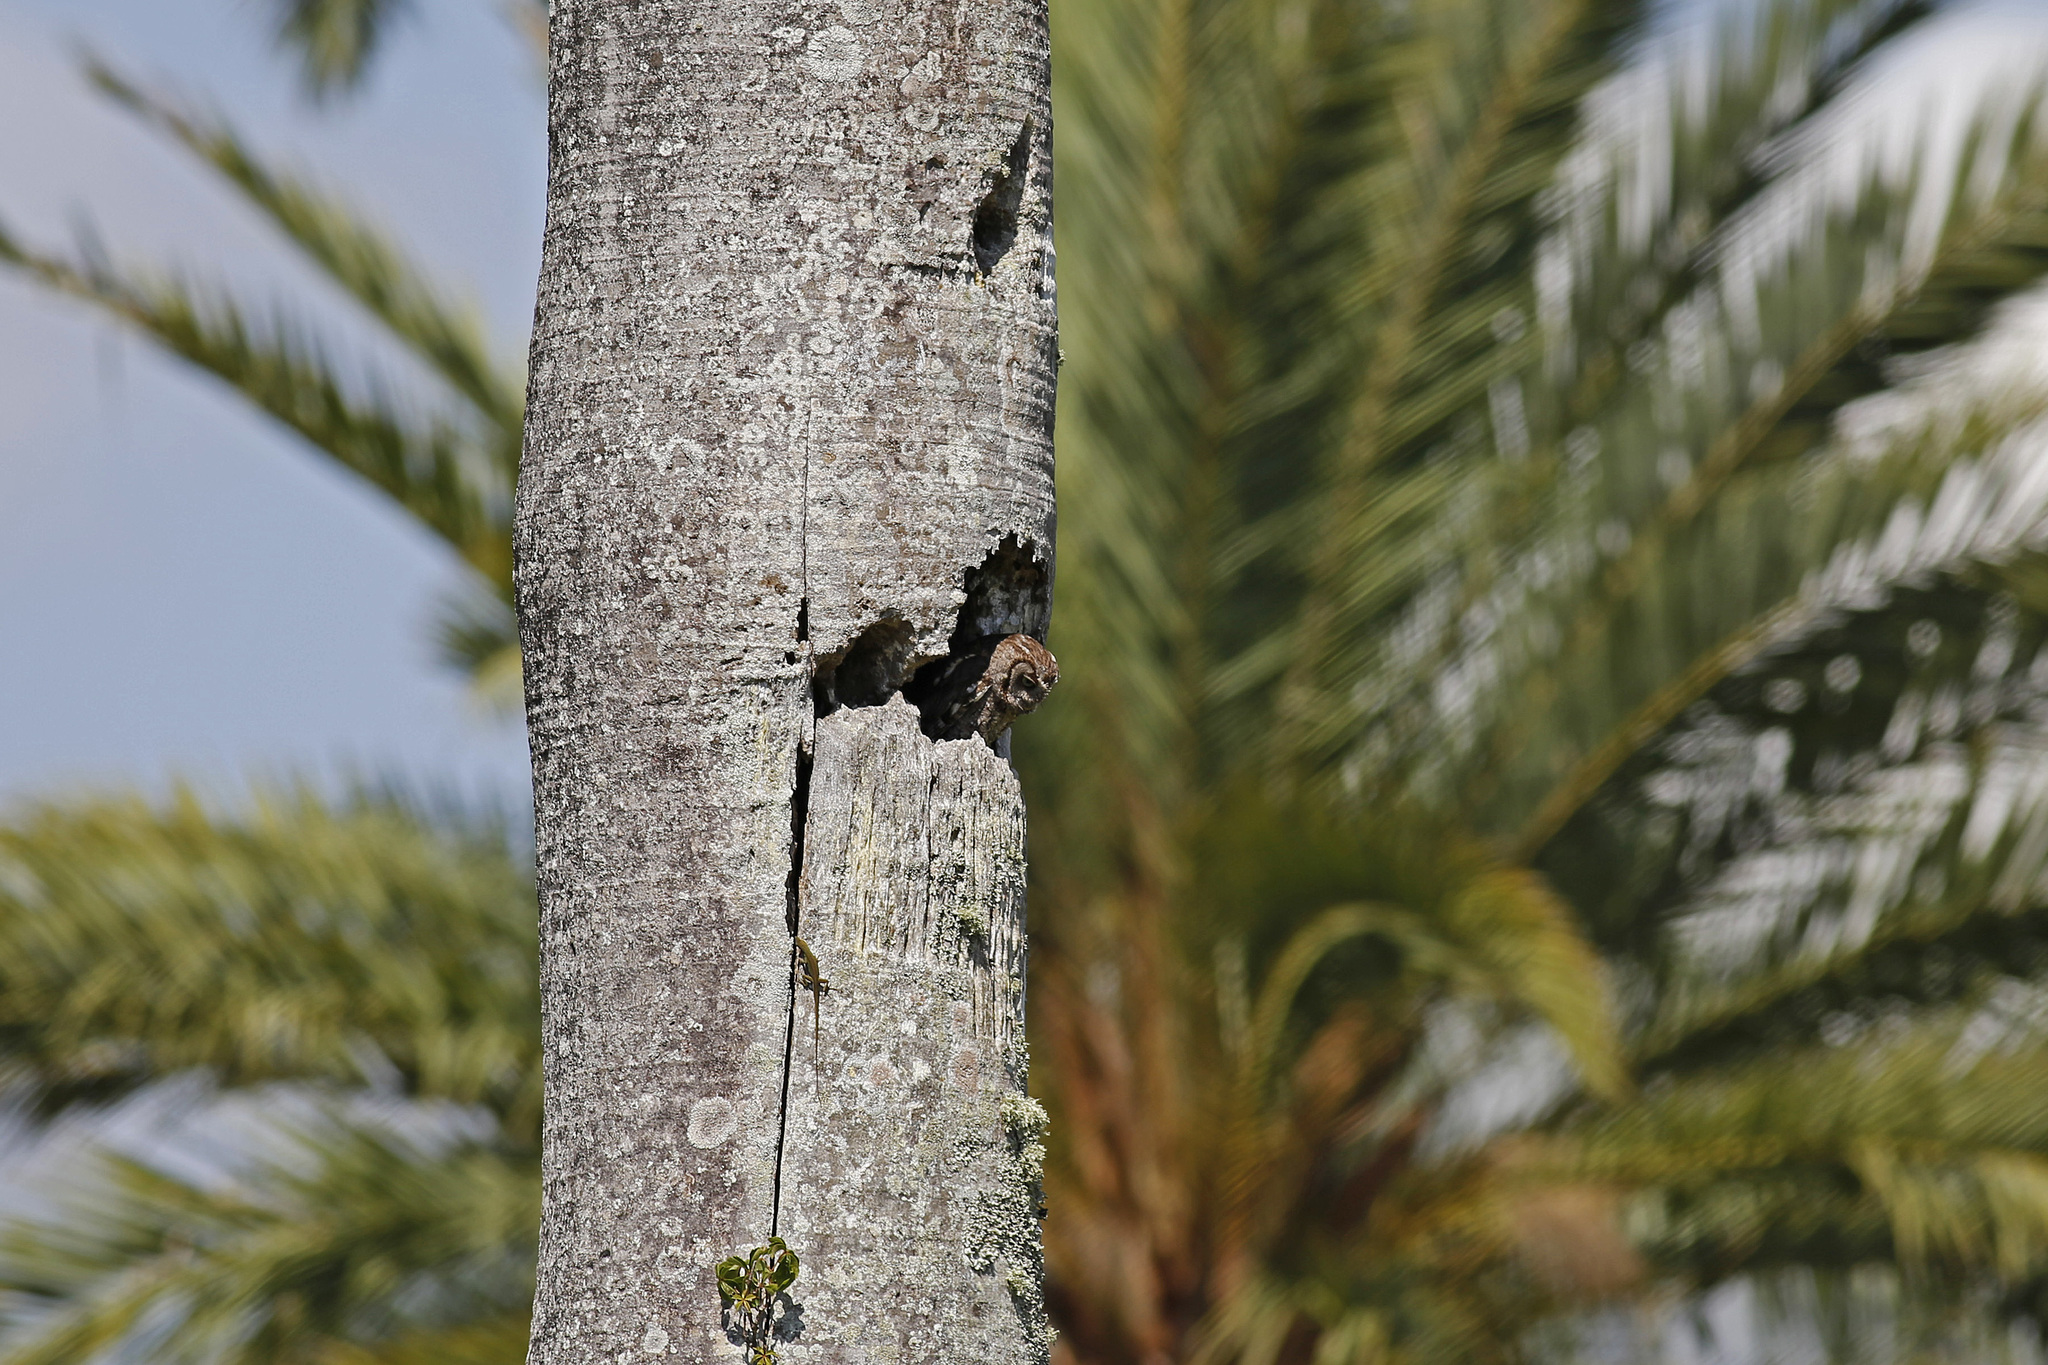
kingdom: Animalia
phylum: Chordata
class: Aves
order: Strigiformes
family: Strigidae
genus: Megascops
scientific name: Megascops asio
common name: Eastern screech-owl
